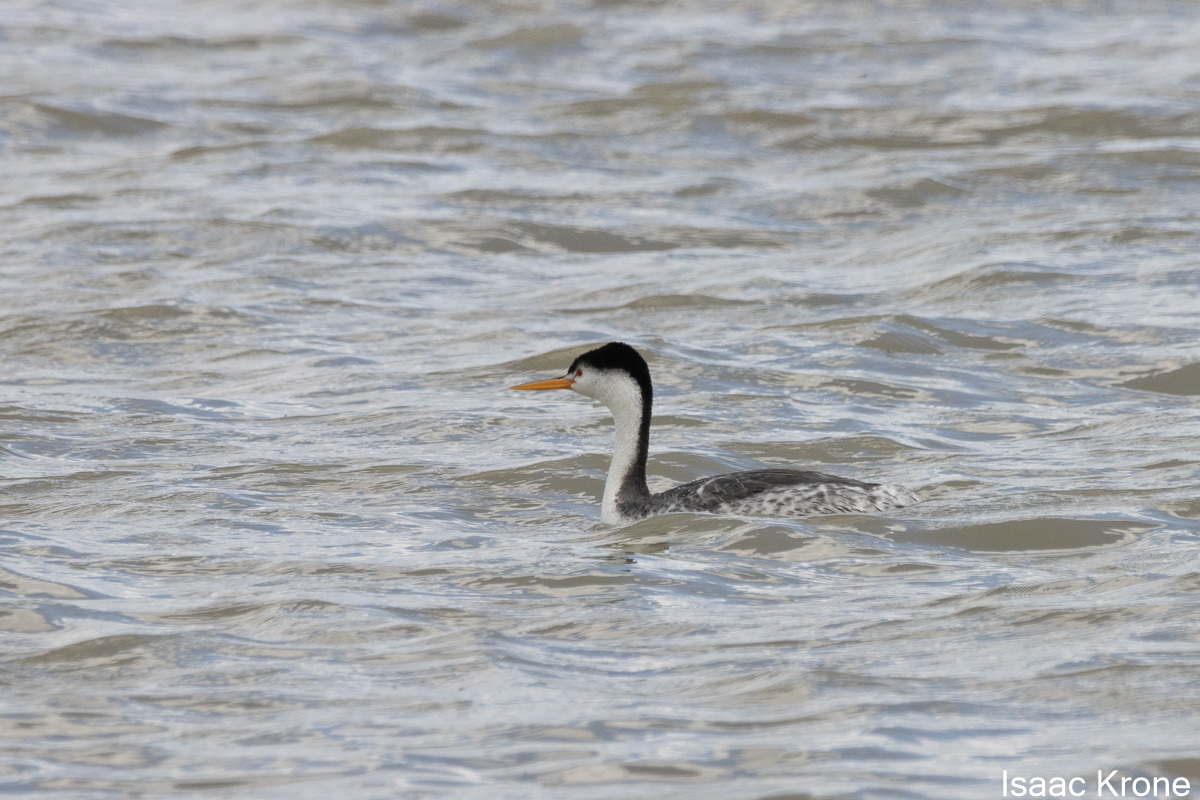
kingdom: Animalia
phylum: Chordata
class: Aves
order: Podicipediformes
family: Podicipedidae
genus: Aechmophorus
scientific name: Aechmophorus clarkii
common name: Clark's grebe
